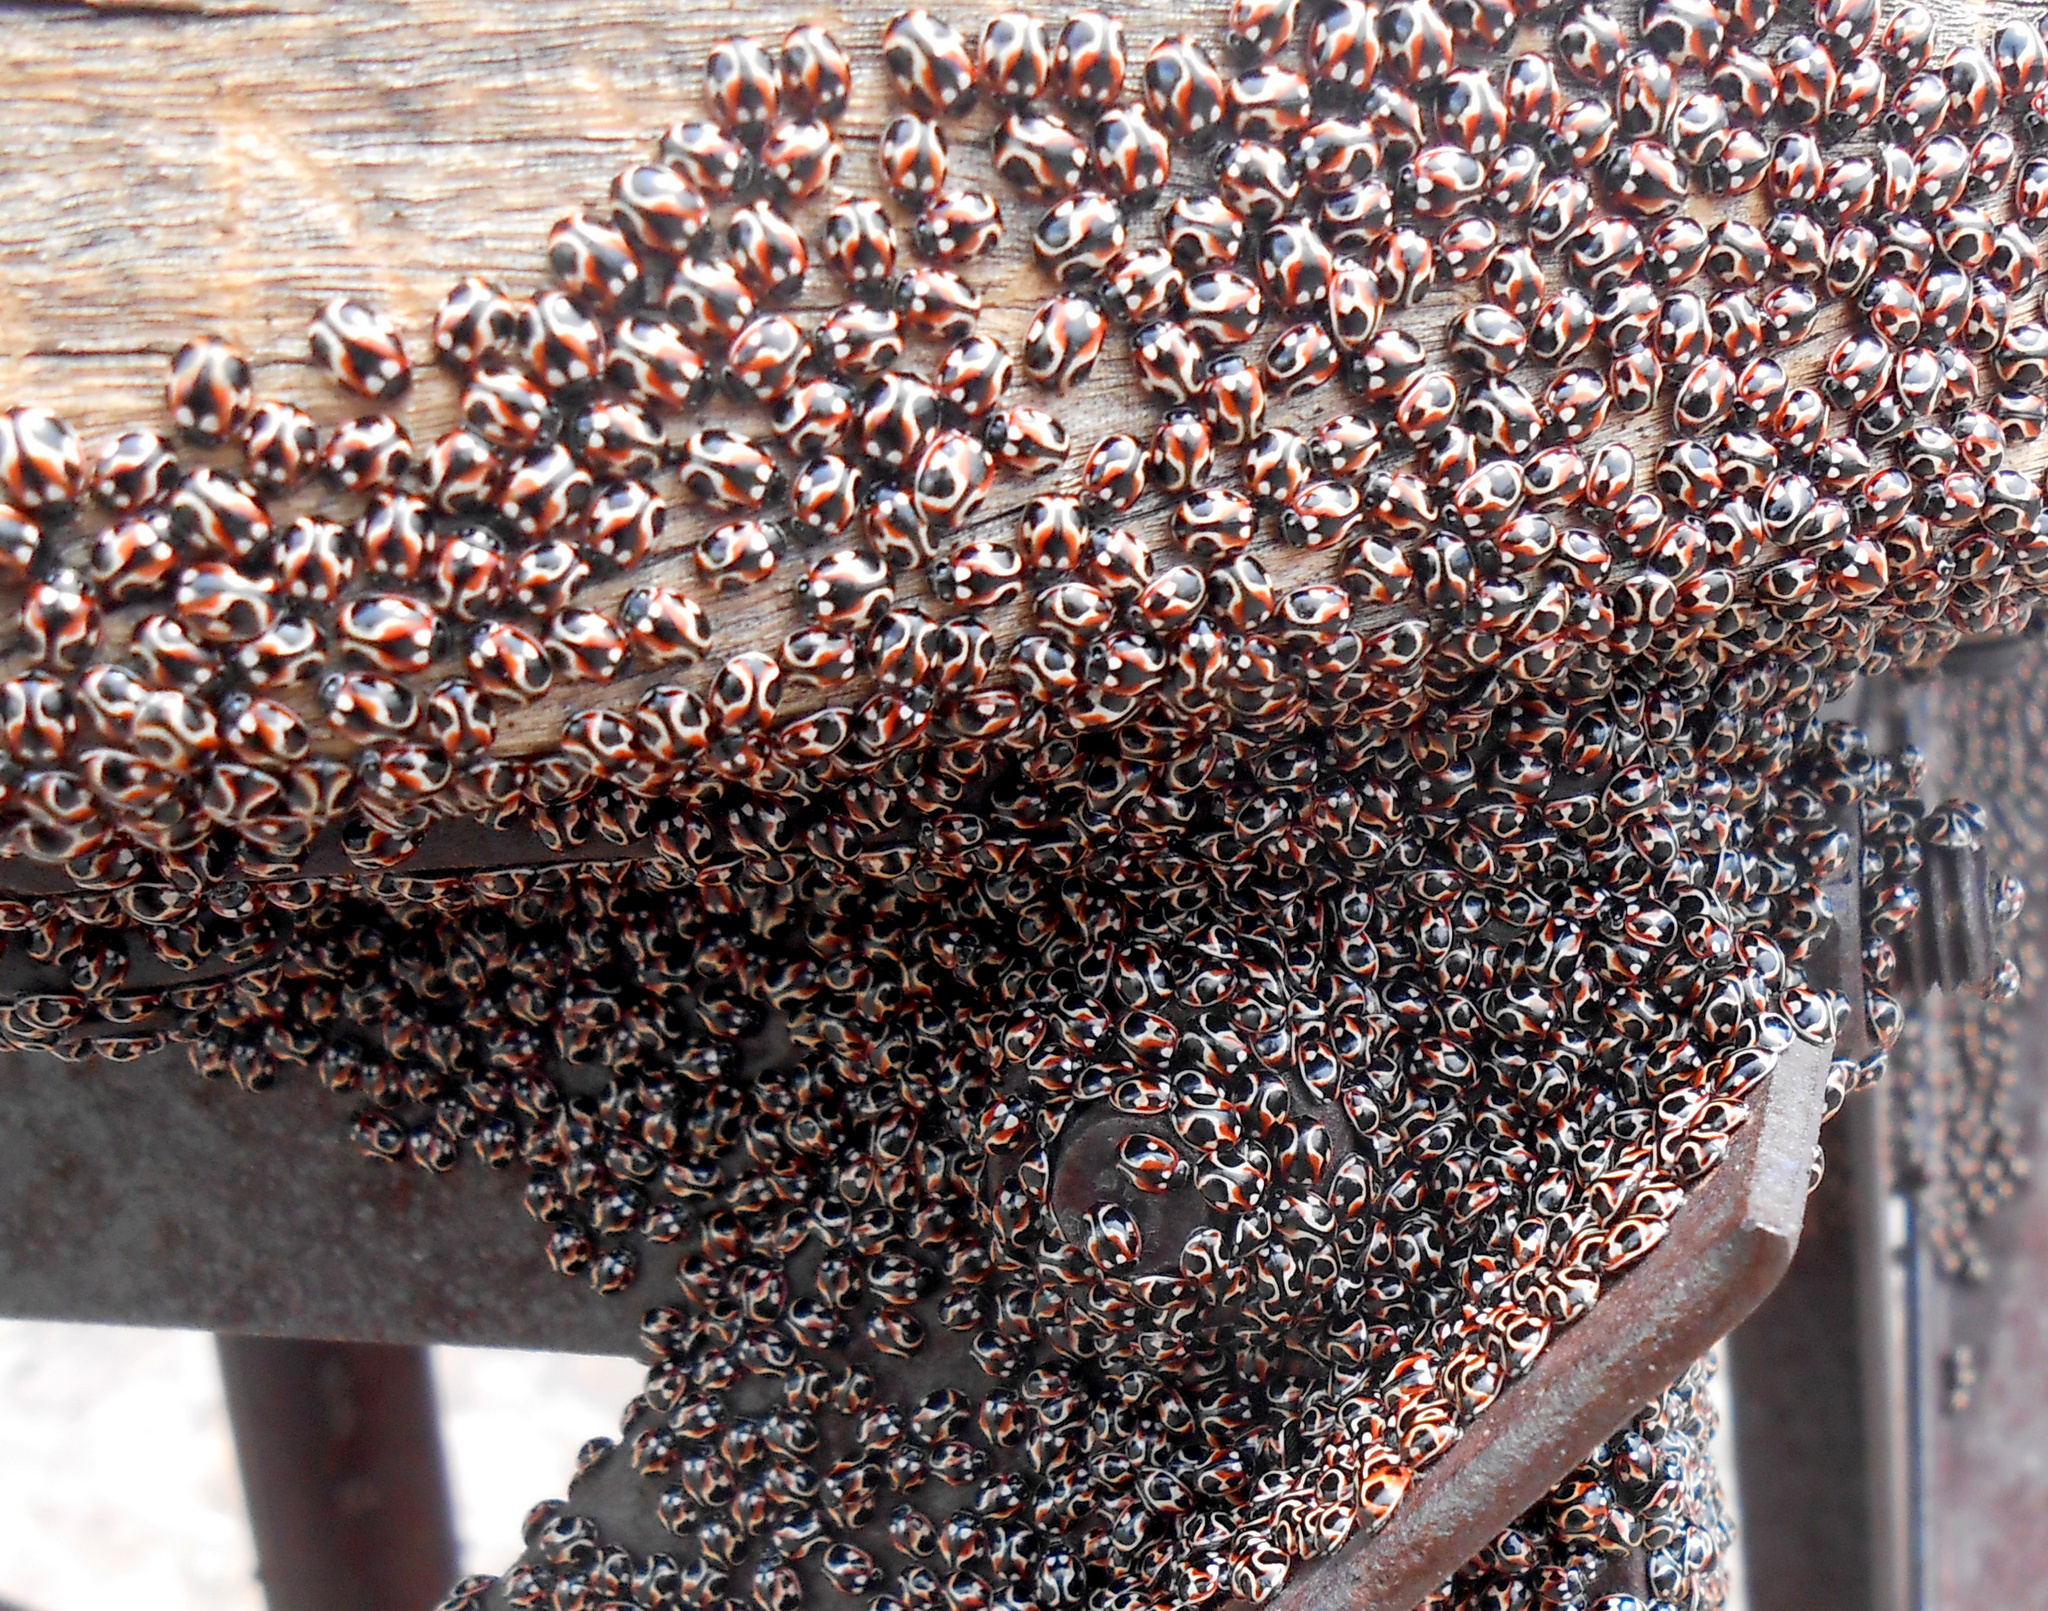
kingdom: Animalia
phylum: Arthropoda
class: Insecta
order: Coleoptera
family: Coccinellidae
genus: Cycloneda
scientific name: Cycloneda ancoralis
